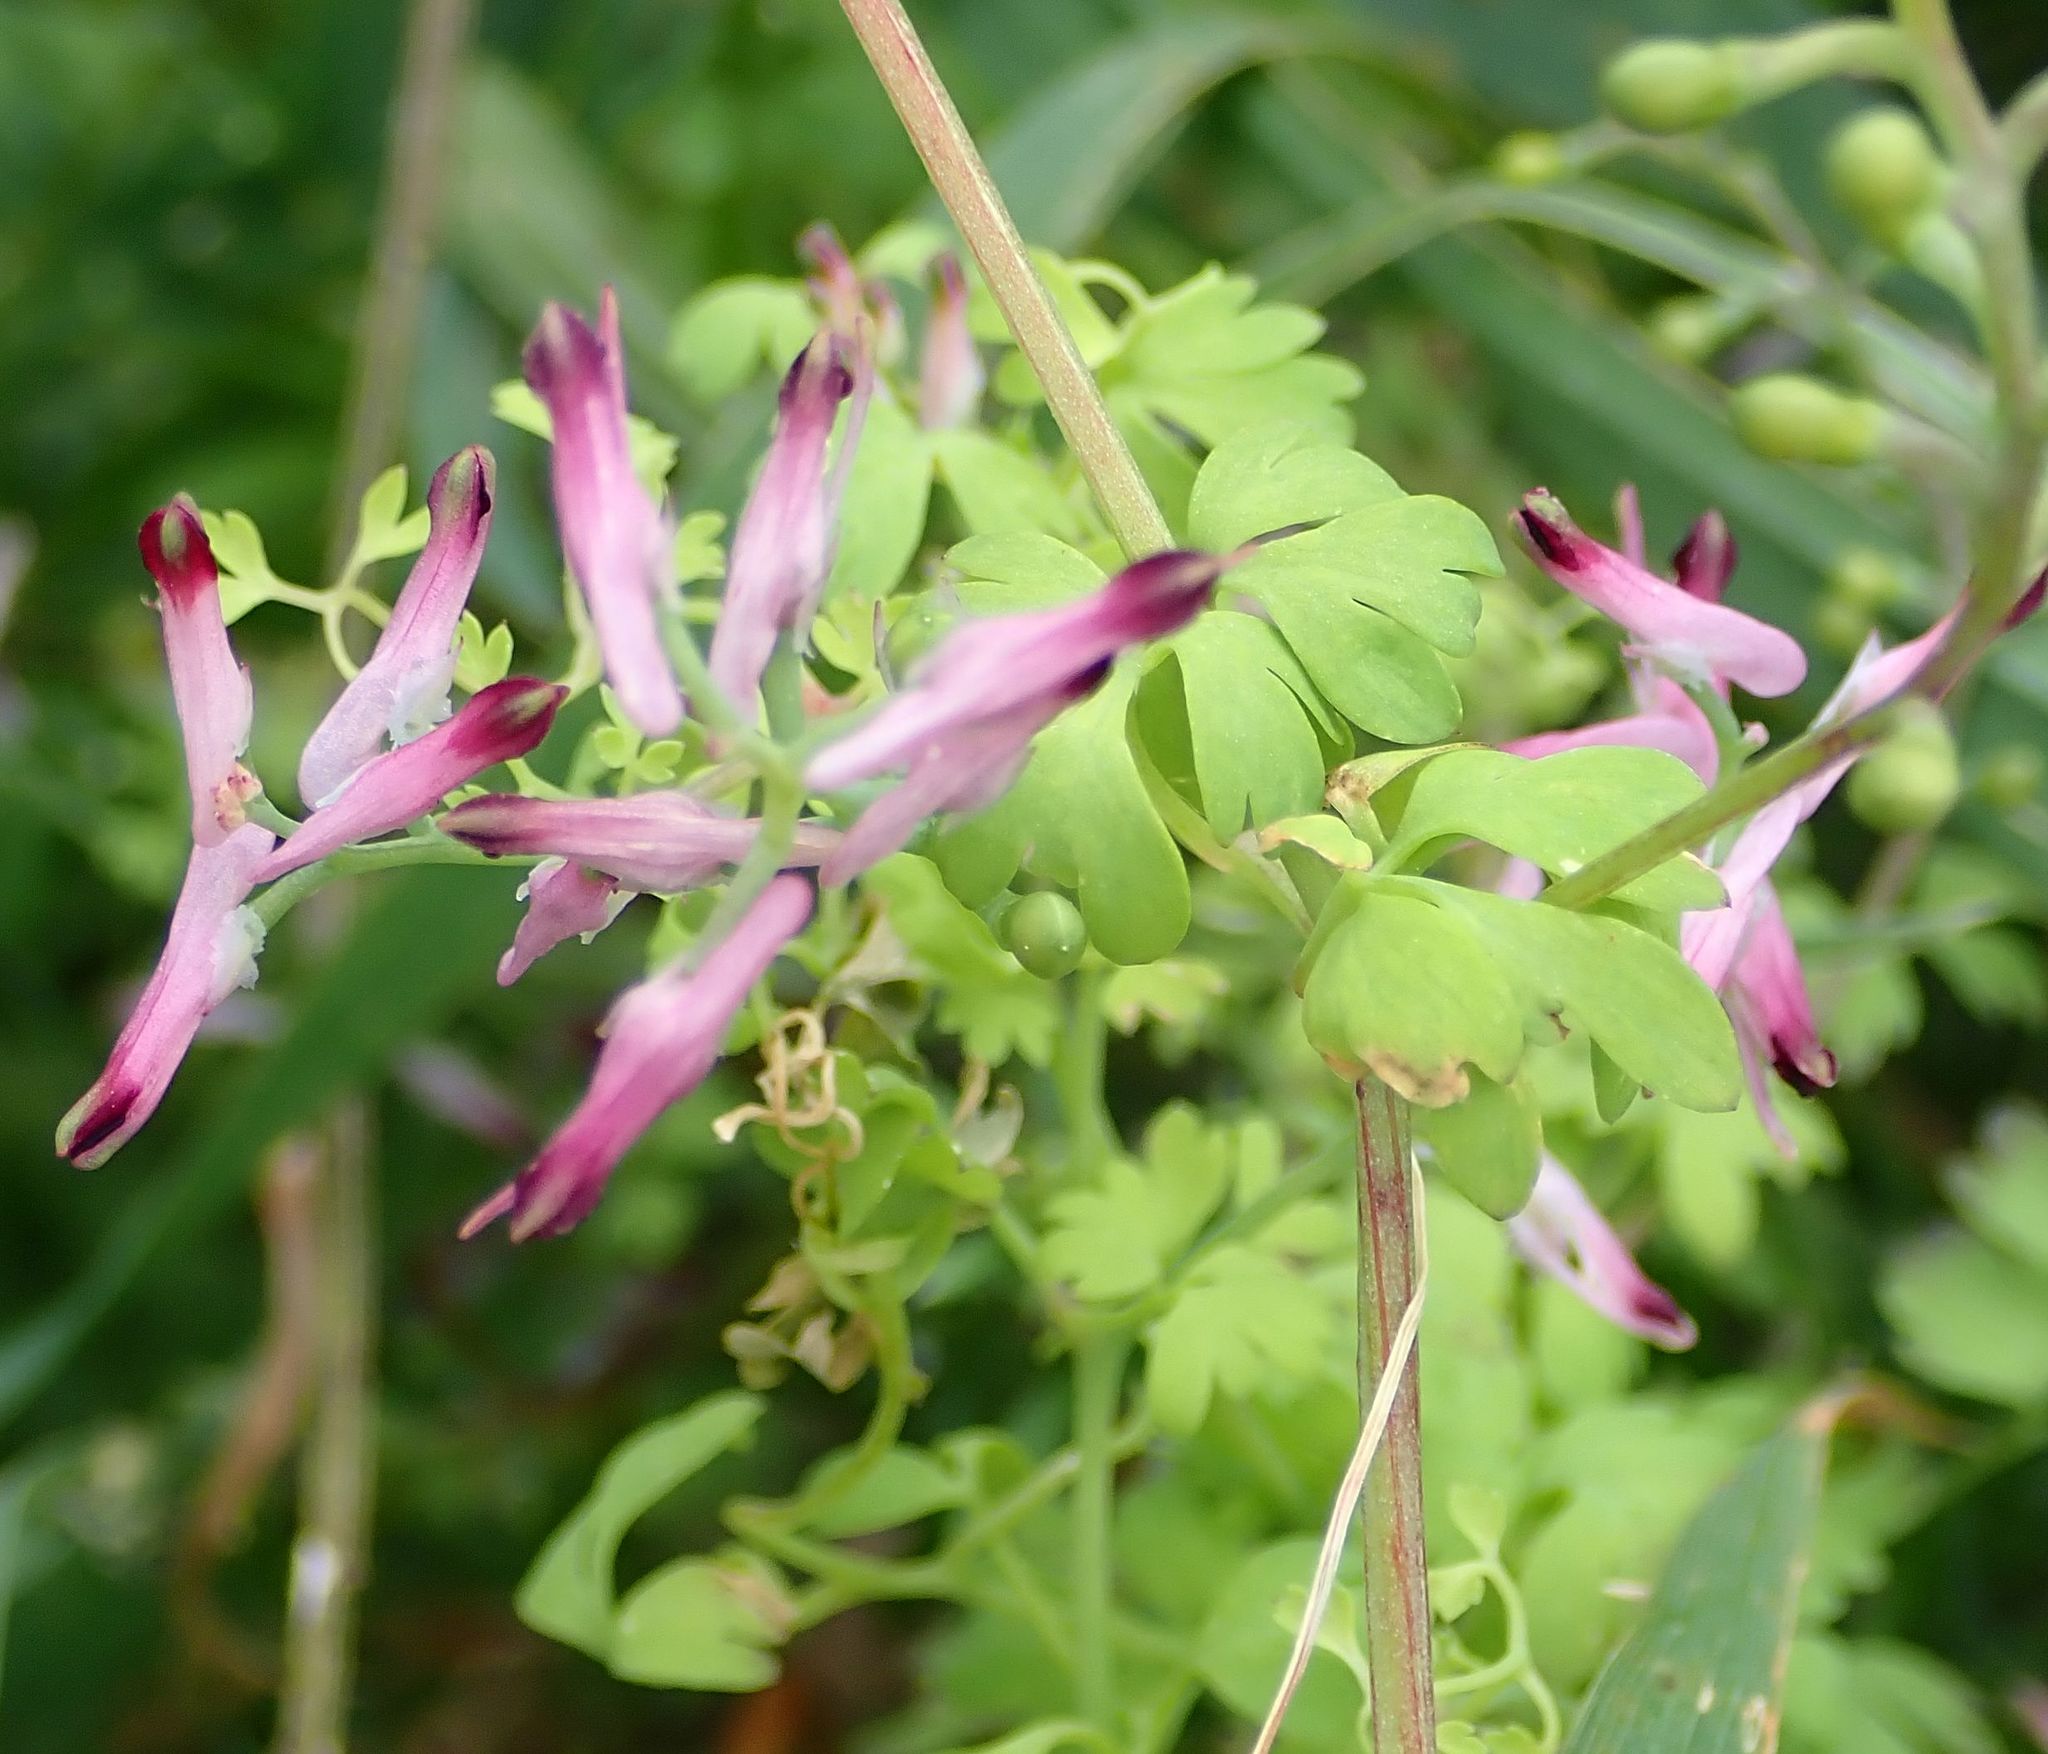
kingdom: Plantae
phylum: Tracheophyta
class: Magnoliopsida
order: Ranunculales
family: Papaveraceae
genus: Fumaria
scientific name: Fumaria muralis
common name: Common ramping-fumitory
